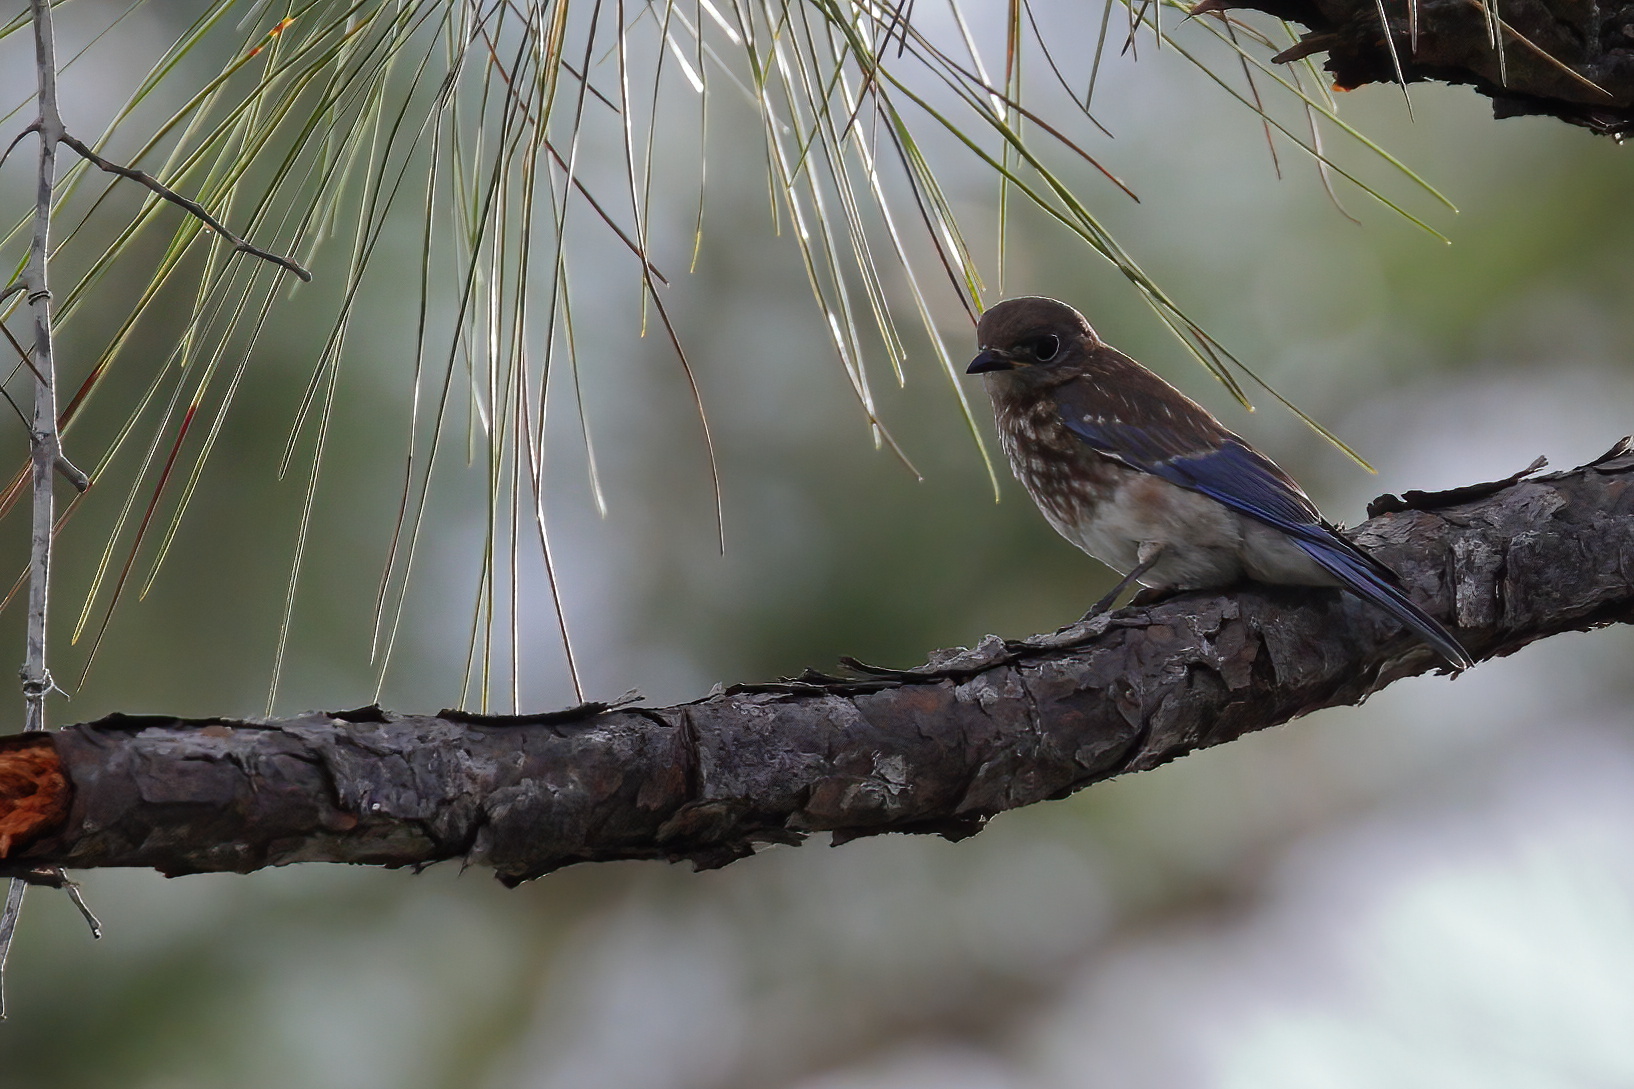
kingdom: Animalia
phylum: Chordata
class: Aves
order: Passeriformes
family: Turdidae
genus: Sialia
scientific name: Sialia sialis
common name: Eastern bluebird
